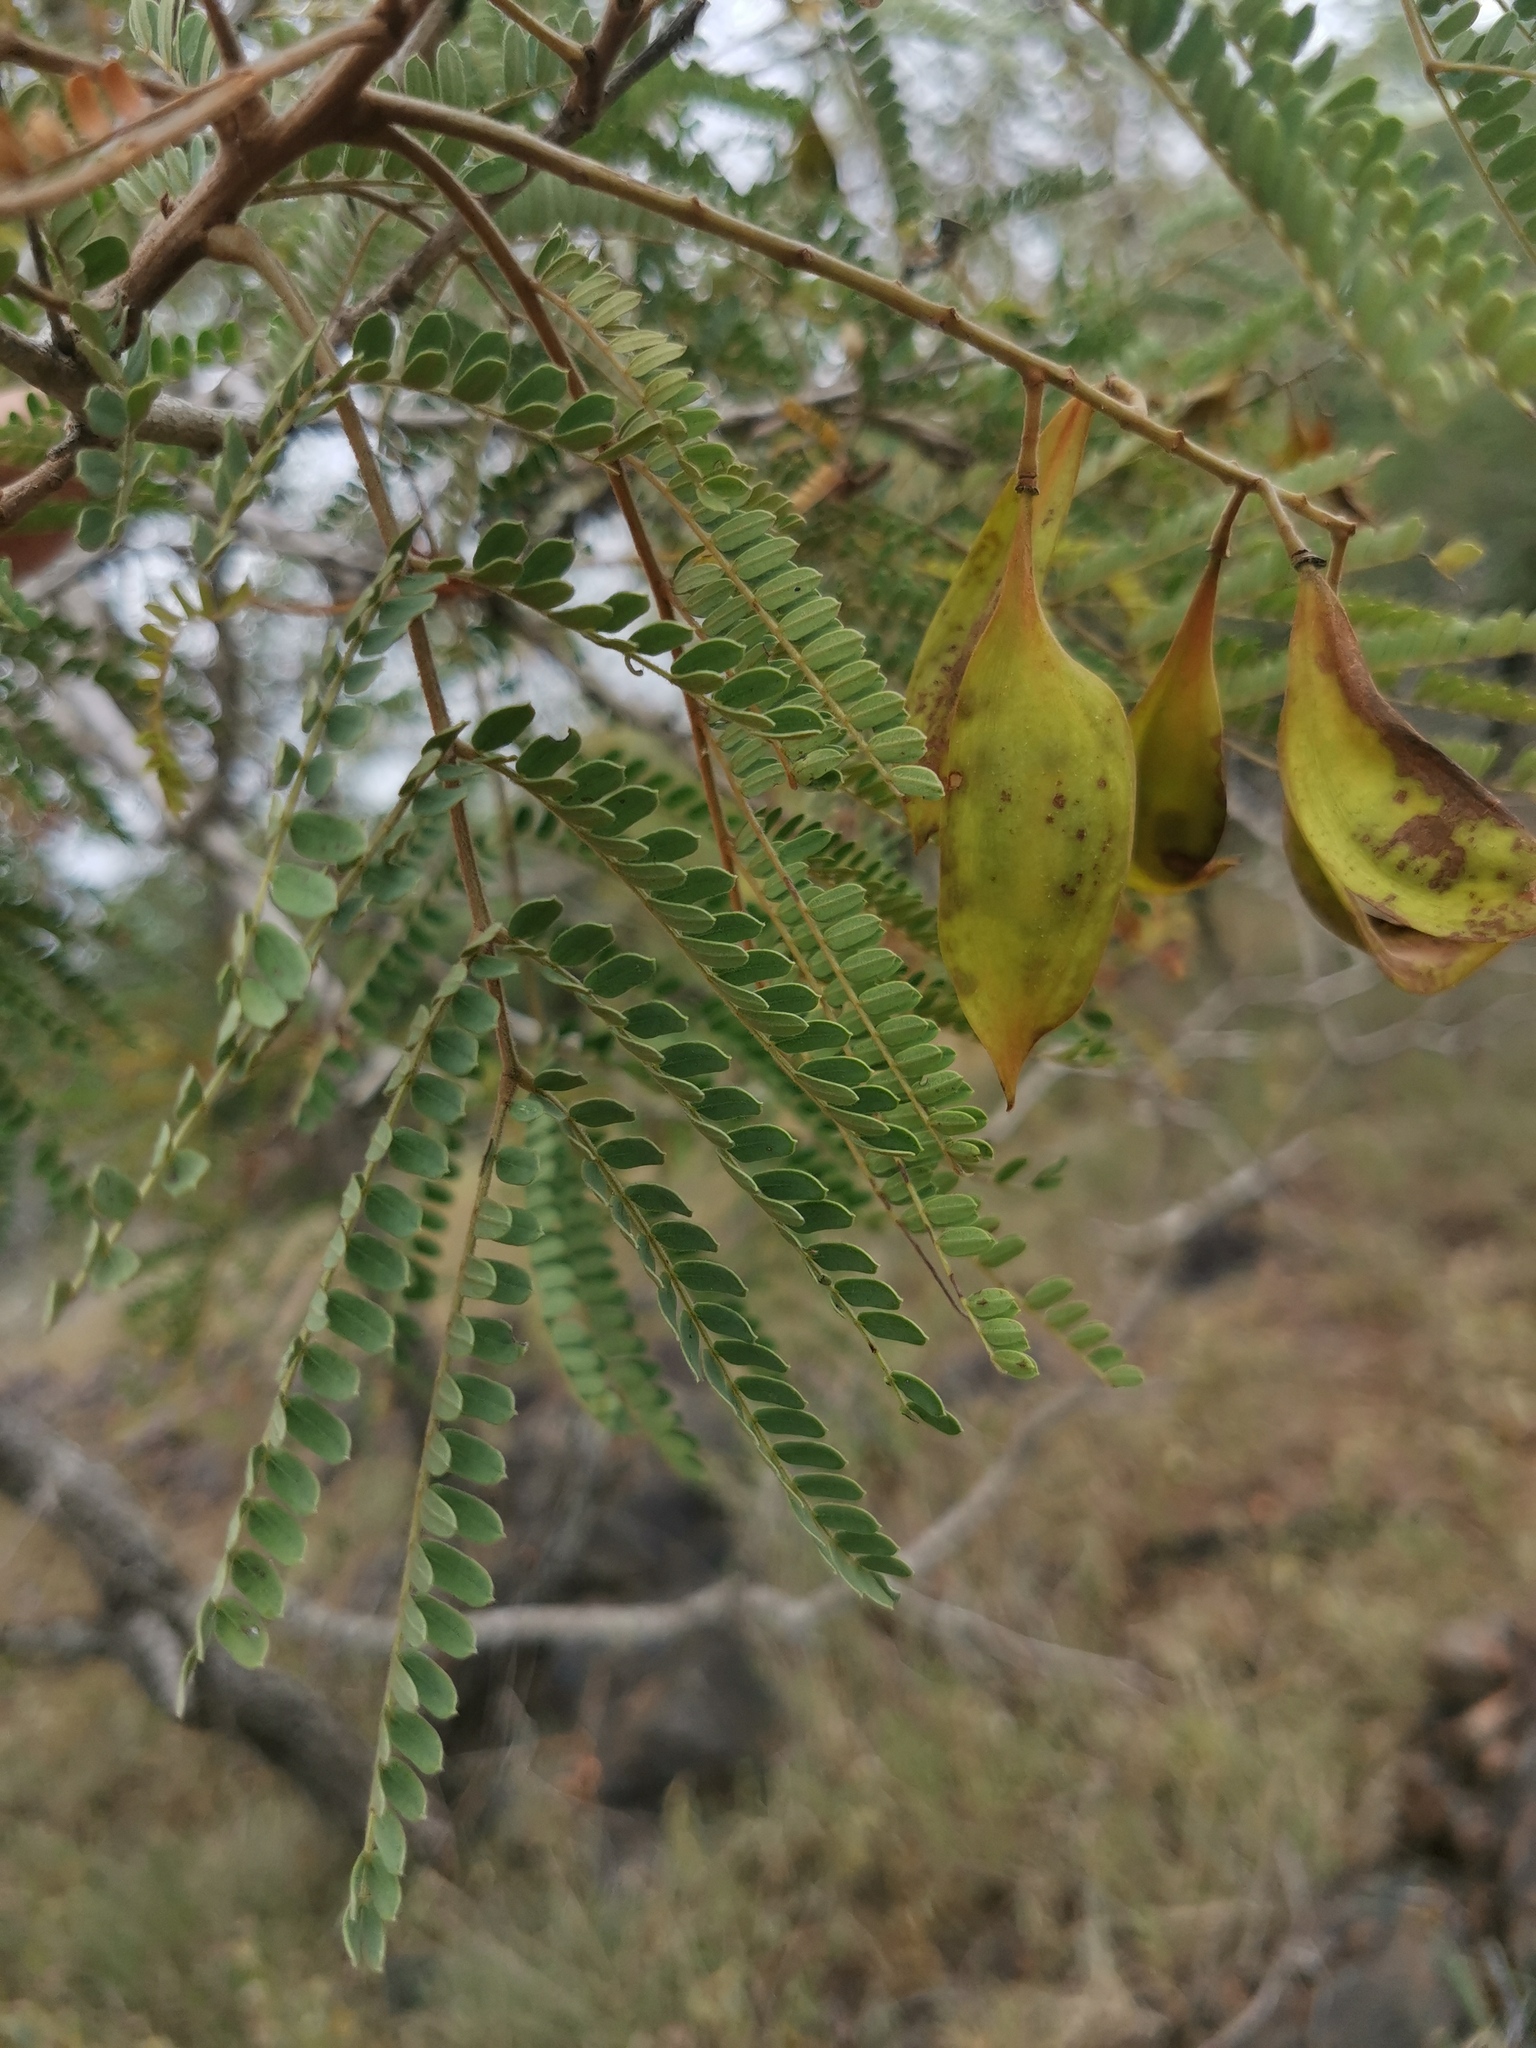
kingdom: Plantae
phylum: Tracheophyta
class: Magnoliopsida
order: Fabales
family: Fabaceae
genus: Peltophorum
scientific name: Peltophorum africanum
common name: African black wattle
